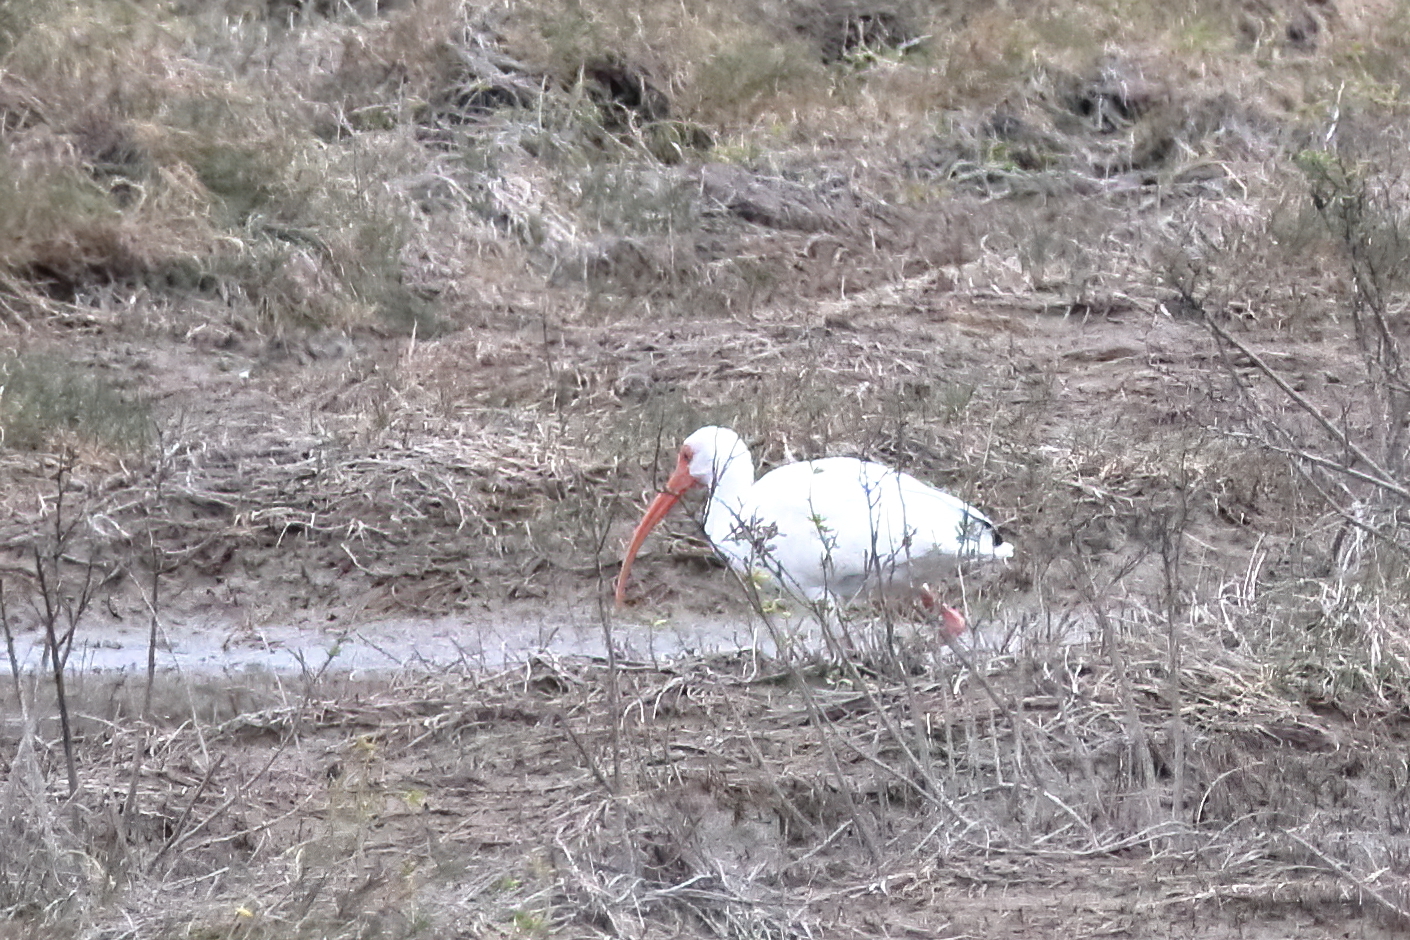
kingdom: Animalia
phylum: Chordata
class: Aves
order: Pelecaniformes
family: Threskiornithidae
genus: Eudocimus
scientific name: Eudocimus albus
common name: White ibis
